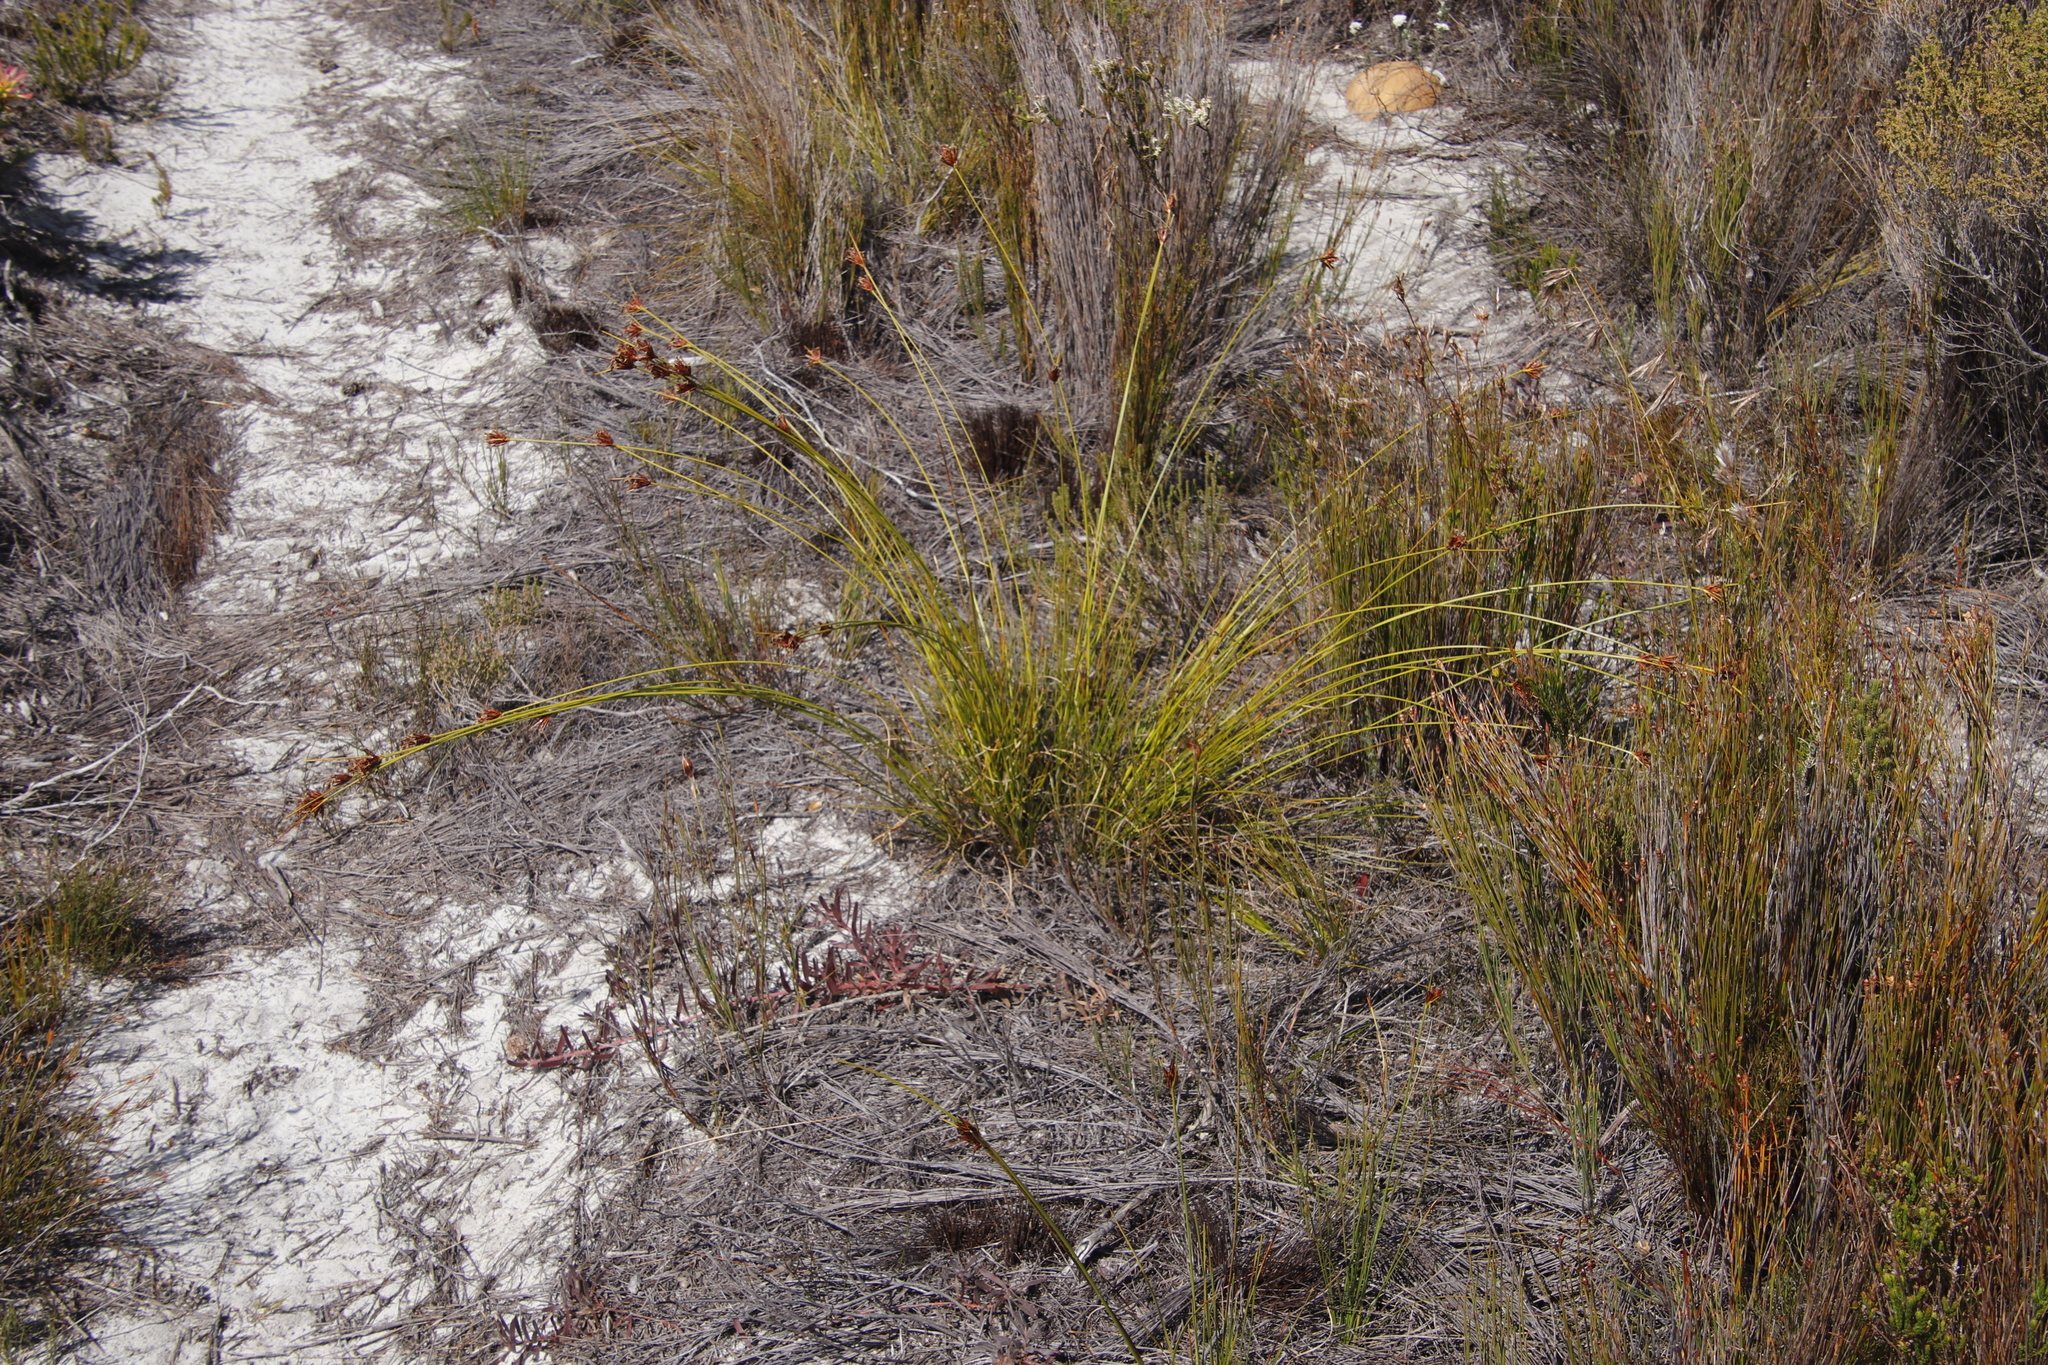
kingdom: Plantae
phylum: Tracheophyta
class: Liliopsida
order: Poales
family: Cyperaceae
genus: Schoenus
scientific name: Schoenus compar
